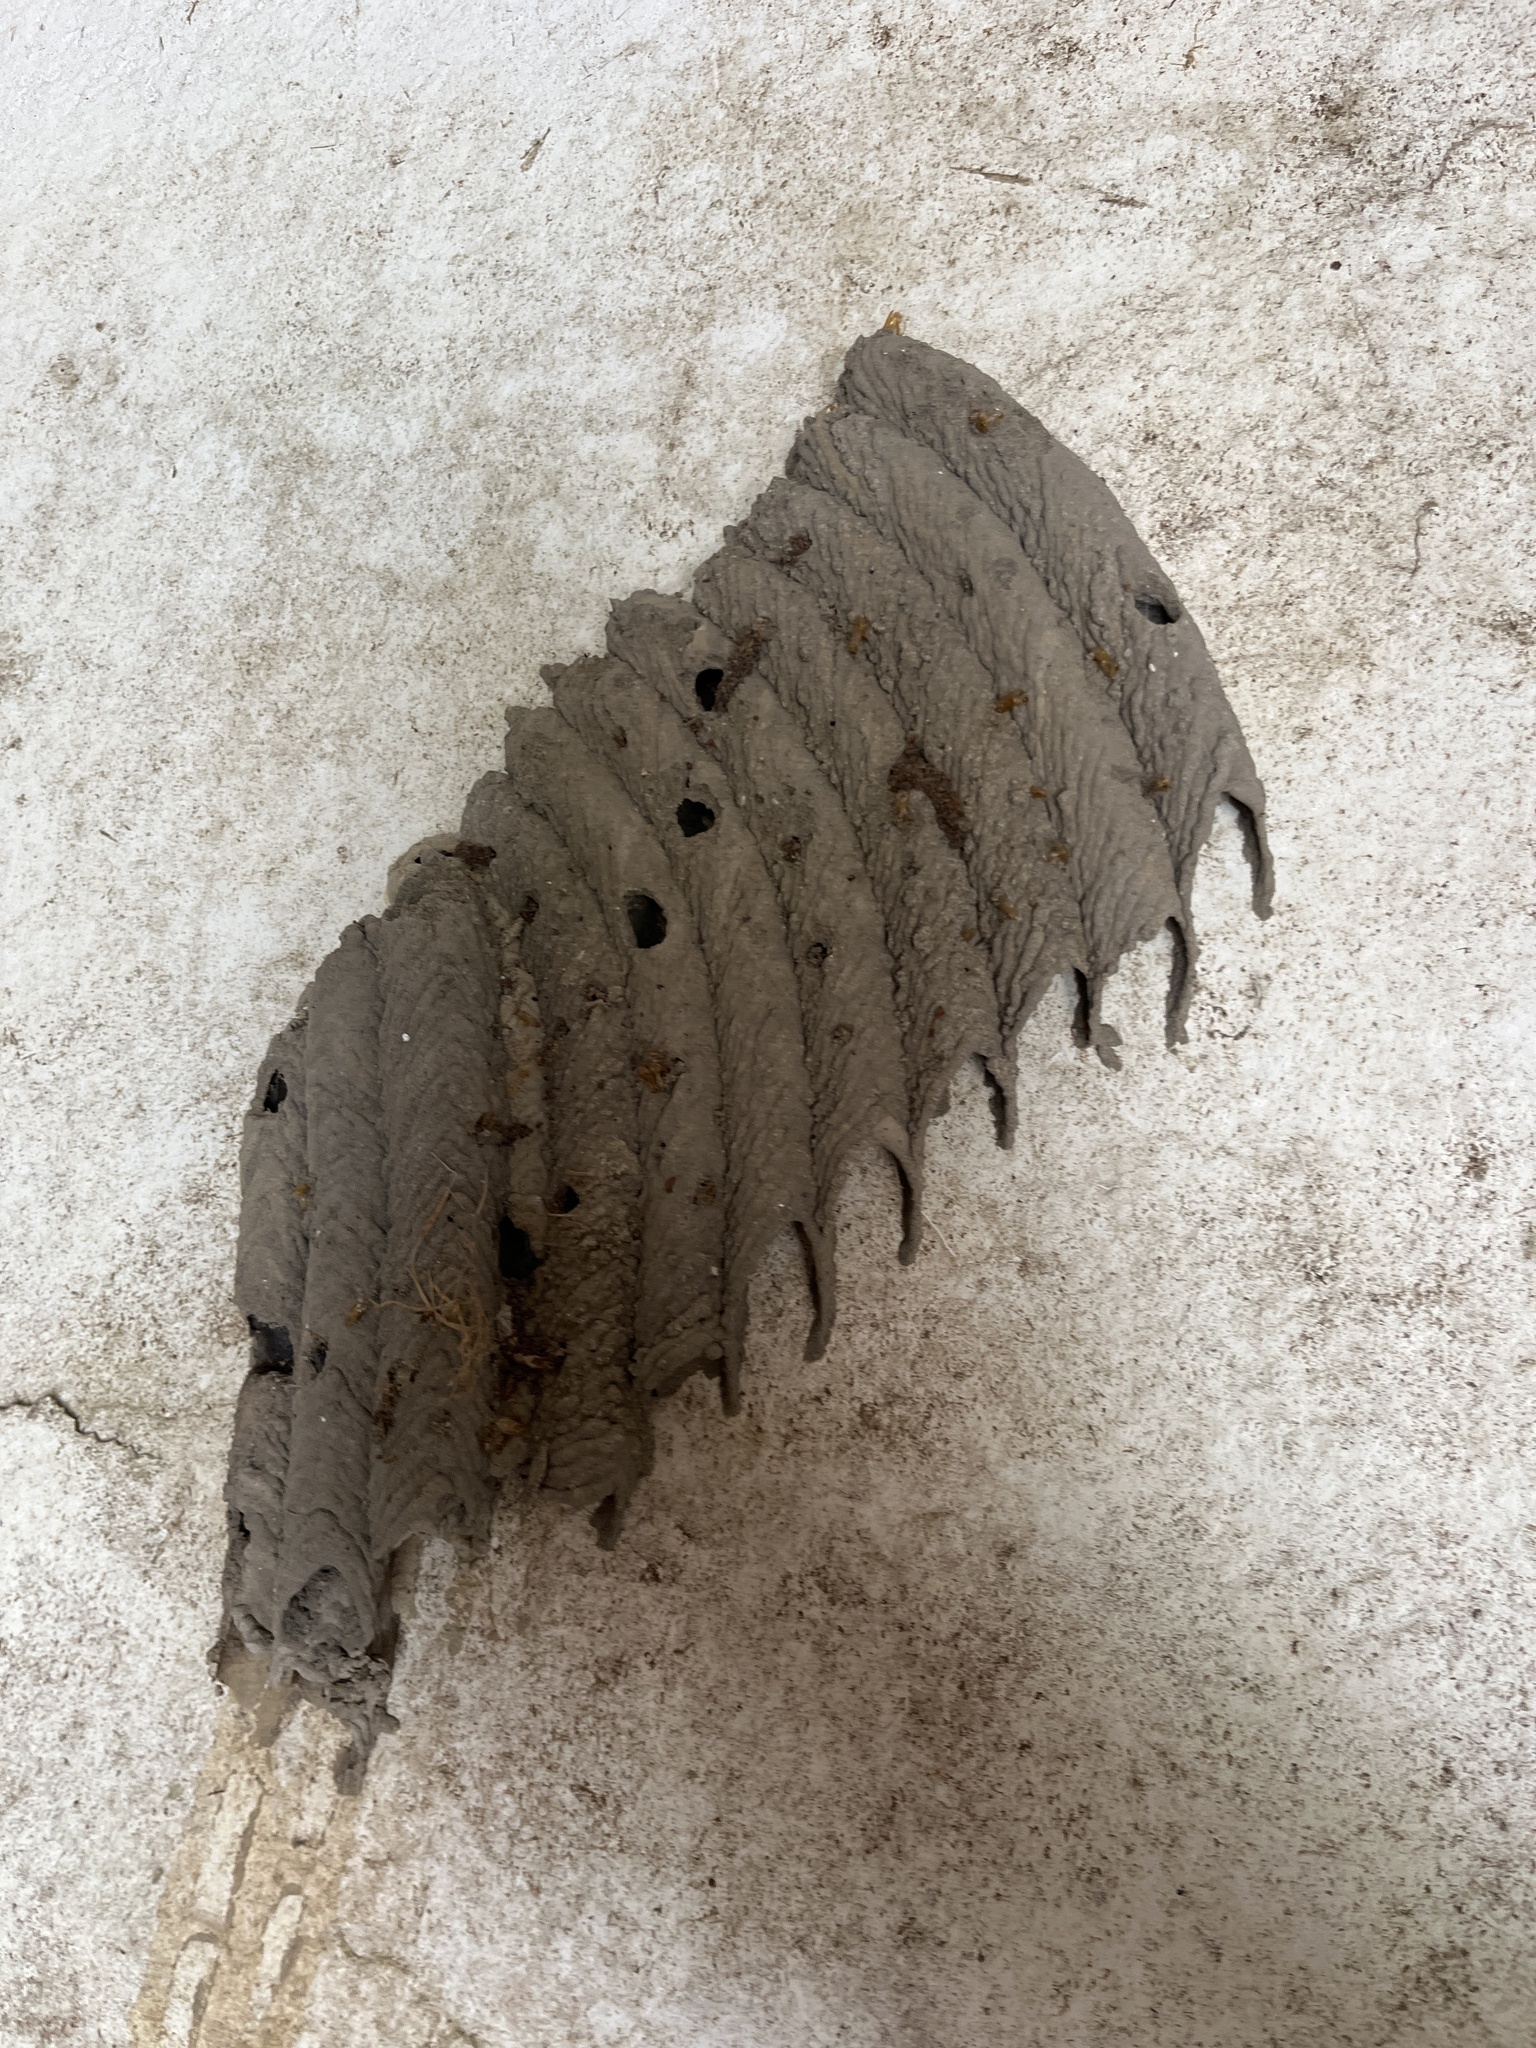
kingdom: Animalia
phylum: Arthropoda
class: Insecta
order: Hymenoptera
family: Crabronidae
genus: Trypoxylon
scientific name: Trypoxylon politum
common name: Organ-pipe mud-dauber wasp
